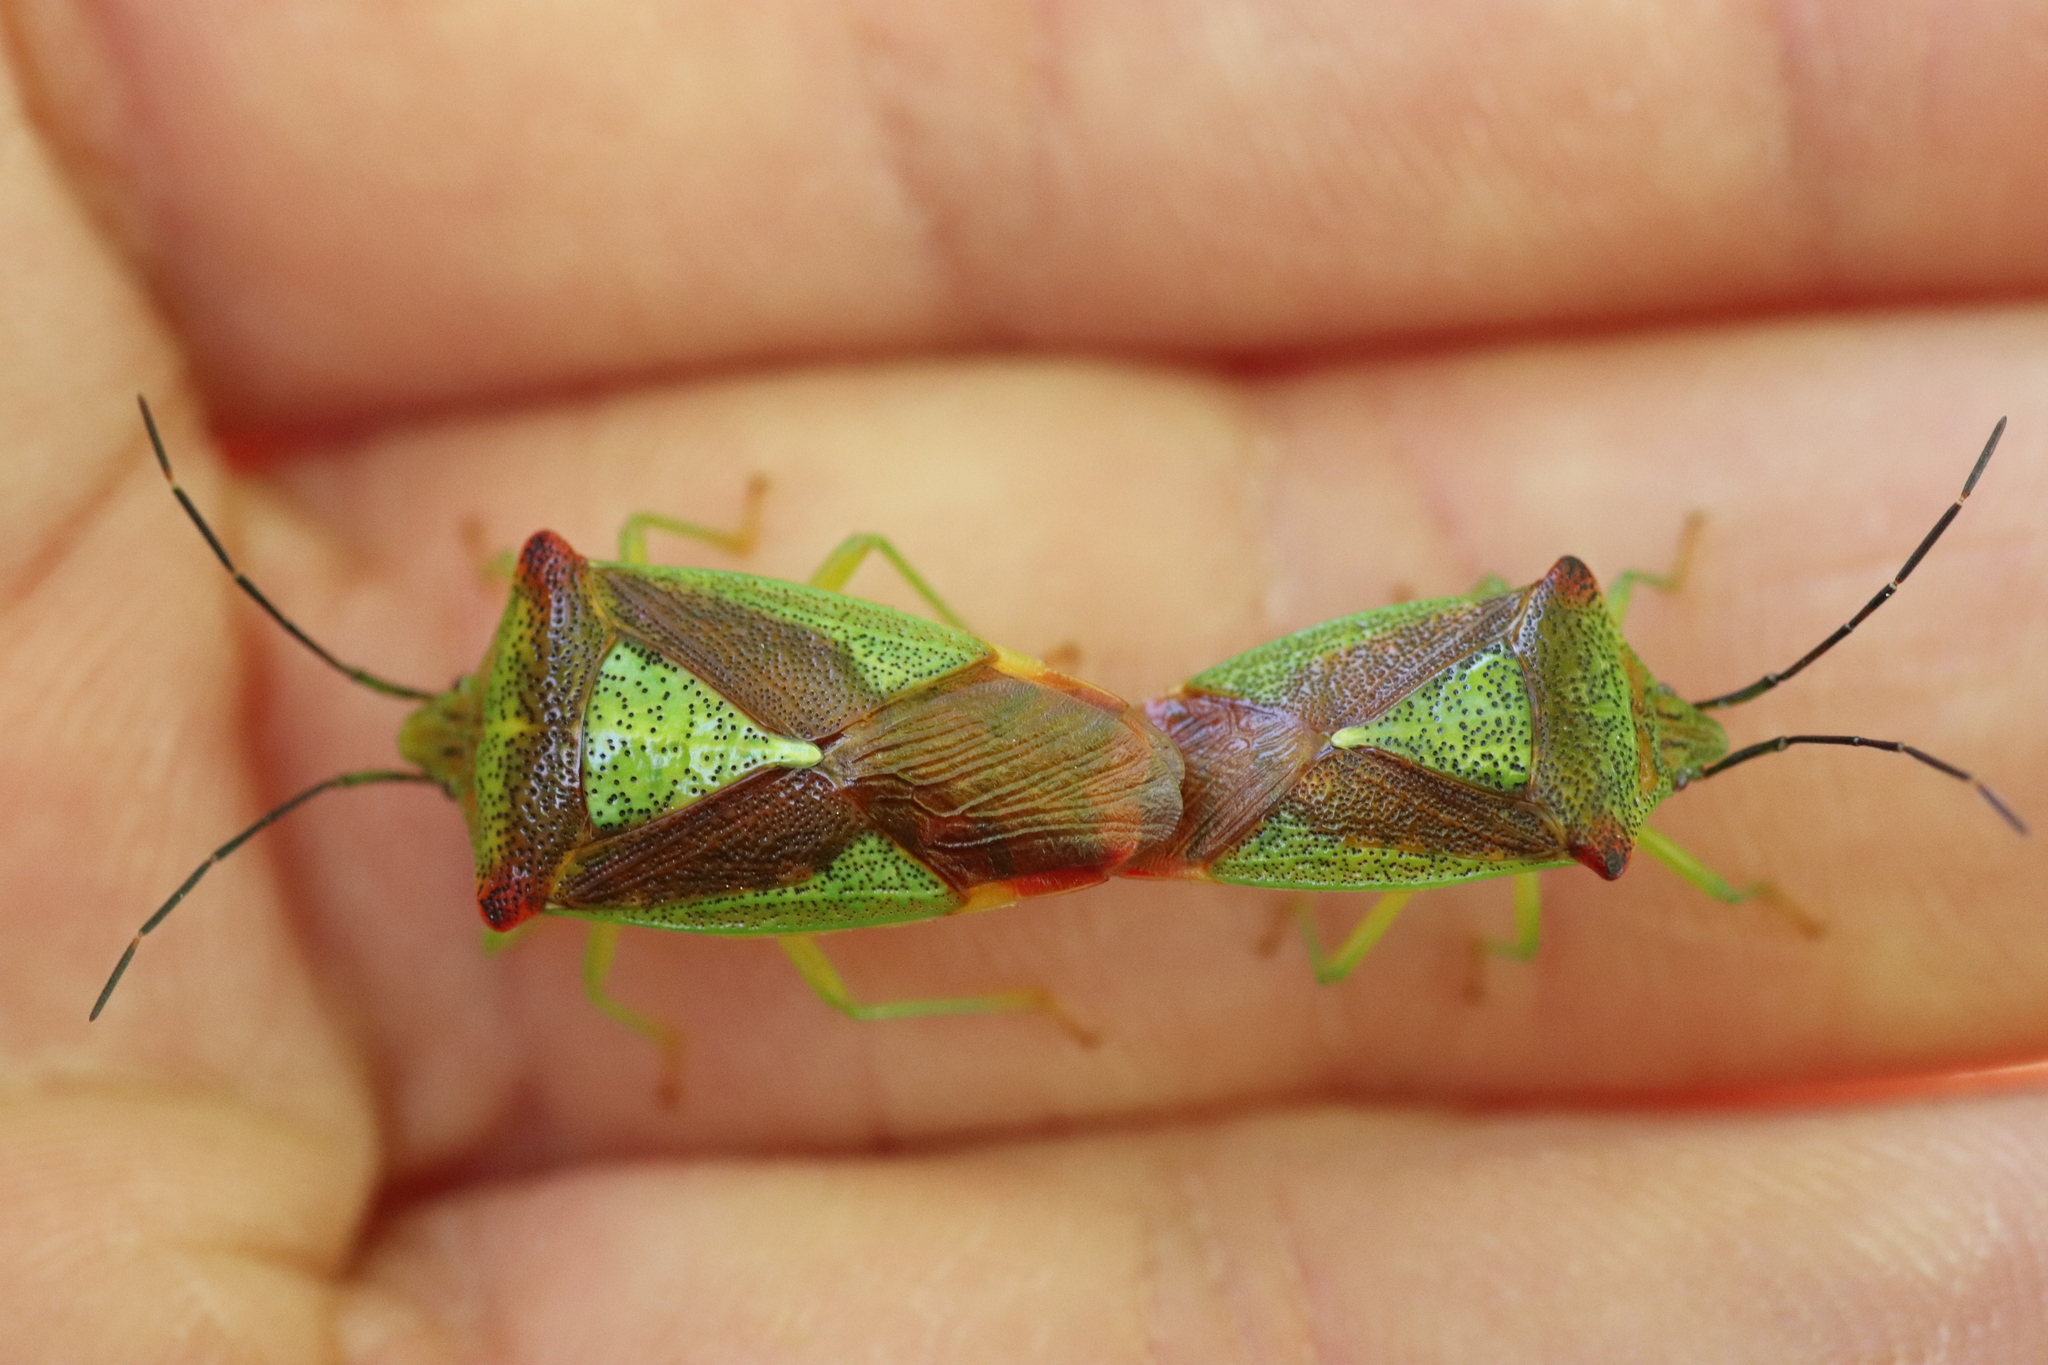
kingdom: Animalia
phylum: Arthropoda
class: Insecta
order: Hemiptera
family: Acanthosomatidae
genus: Acanthosoma
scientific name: Acanthosoma haemorrhoidale
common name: Hawthorn shieldbug
